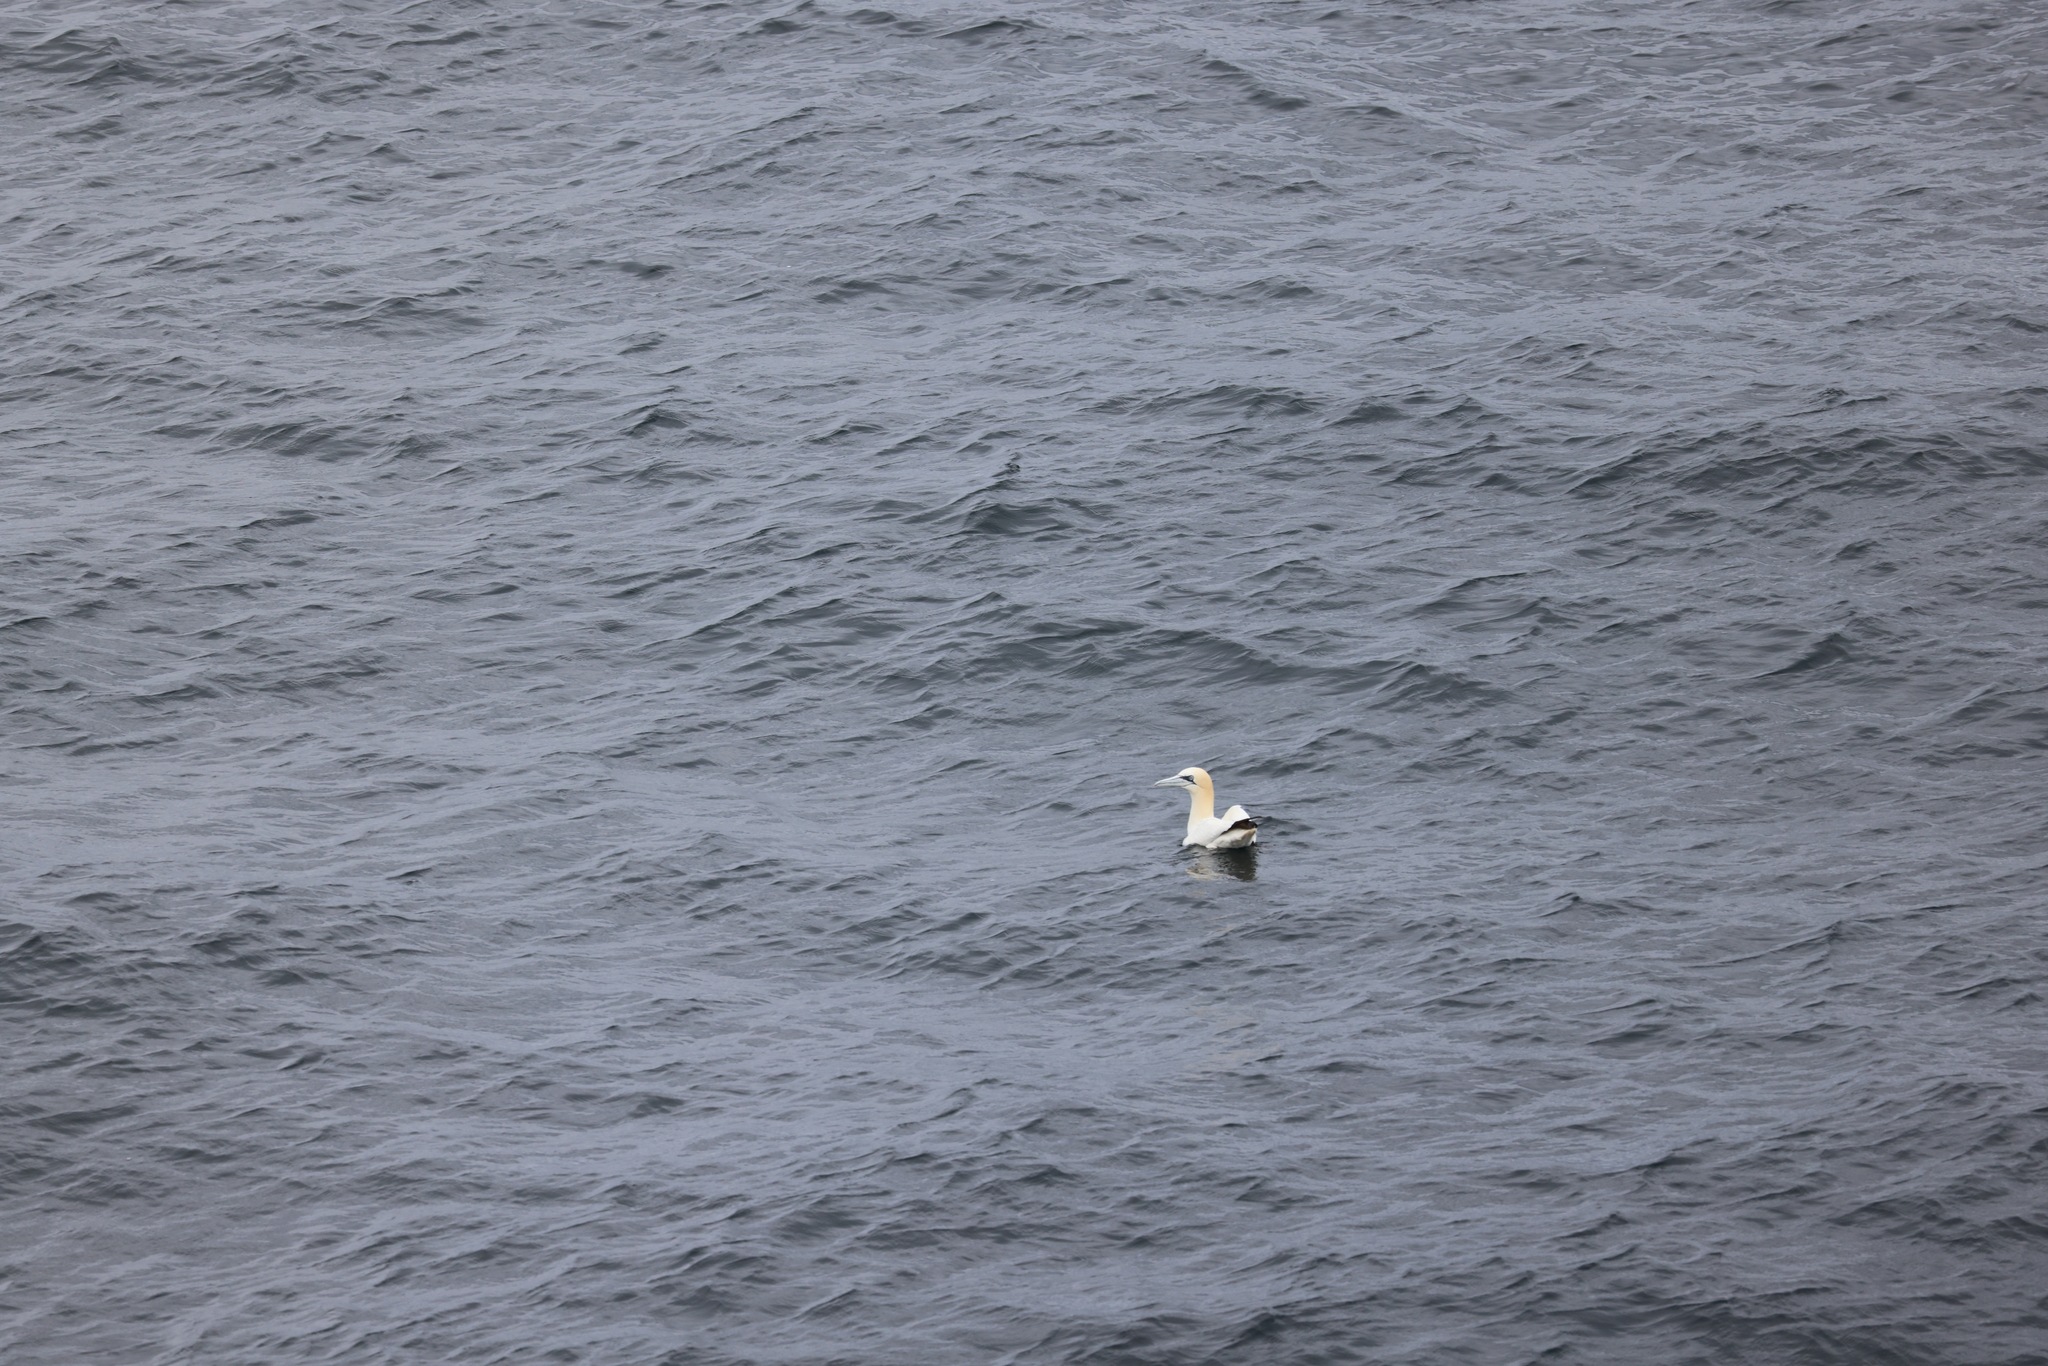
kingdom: Animalia
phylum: Chordata
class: Aves
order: Suliformes
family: Sulidae
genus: Morus
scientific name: Morus bassanus
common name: Northern gannet
